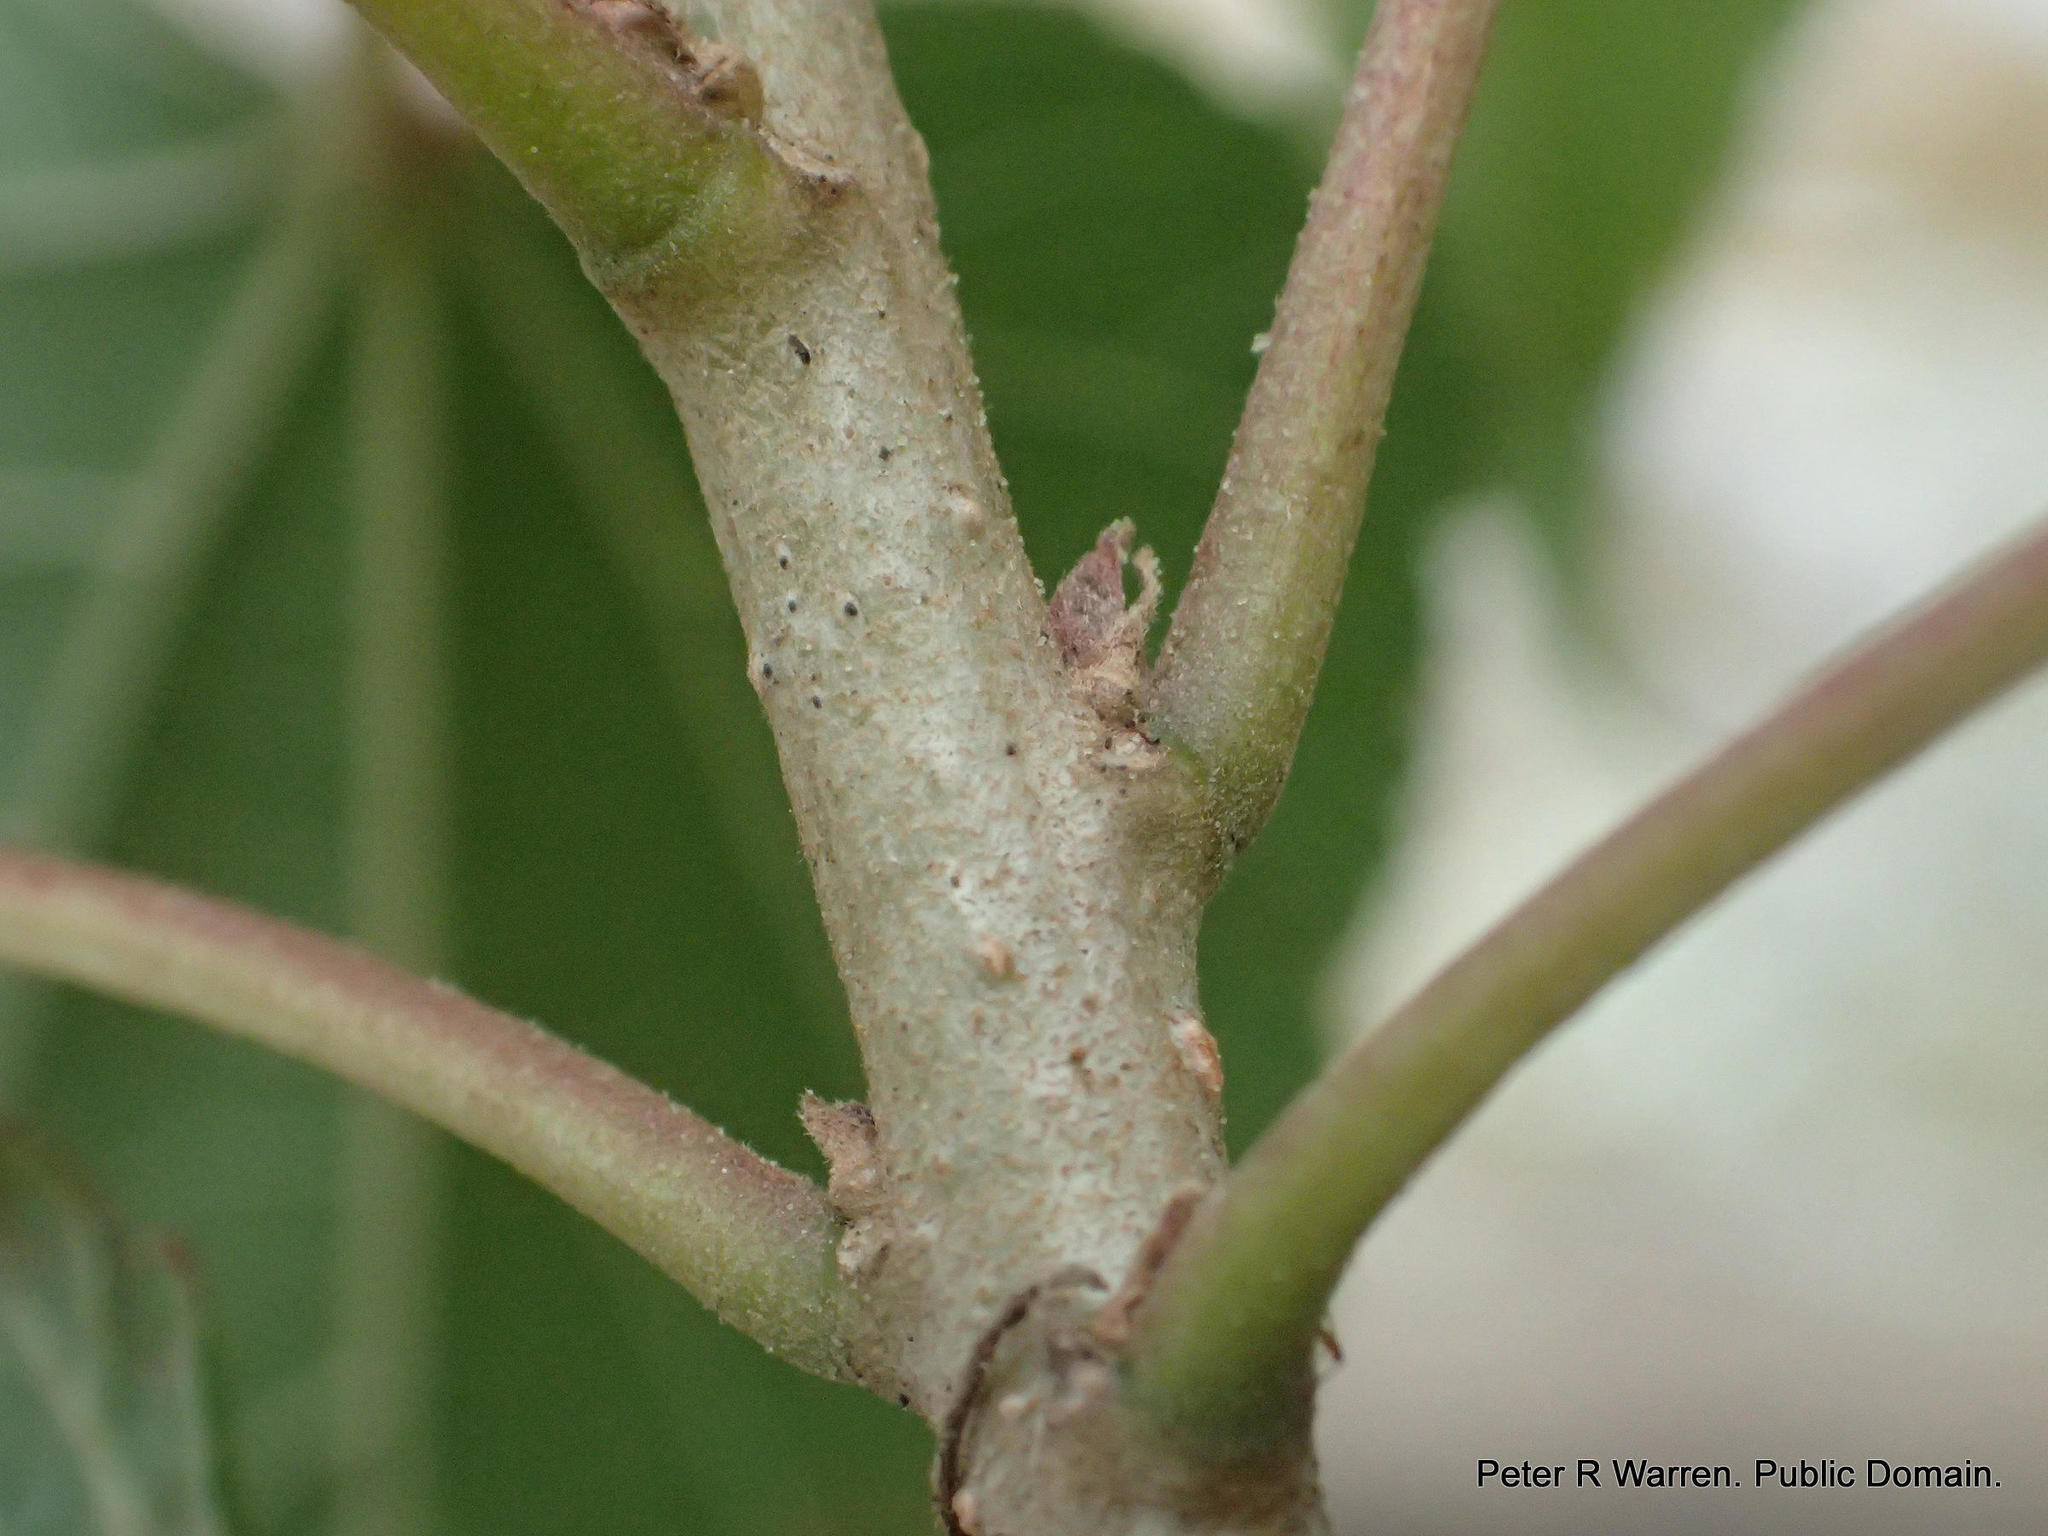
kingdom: Plantae
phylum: Tracheophyta
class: Magnoliopsida
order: Malvales
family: Malvaceae
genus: Dombeya
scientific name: Dombeya tiliacea
